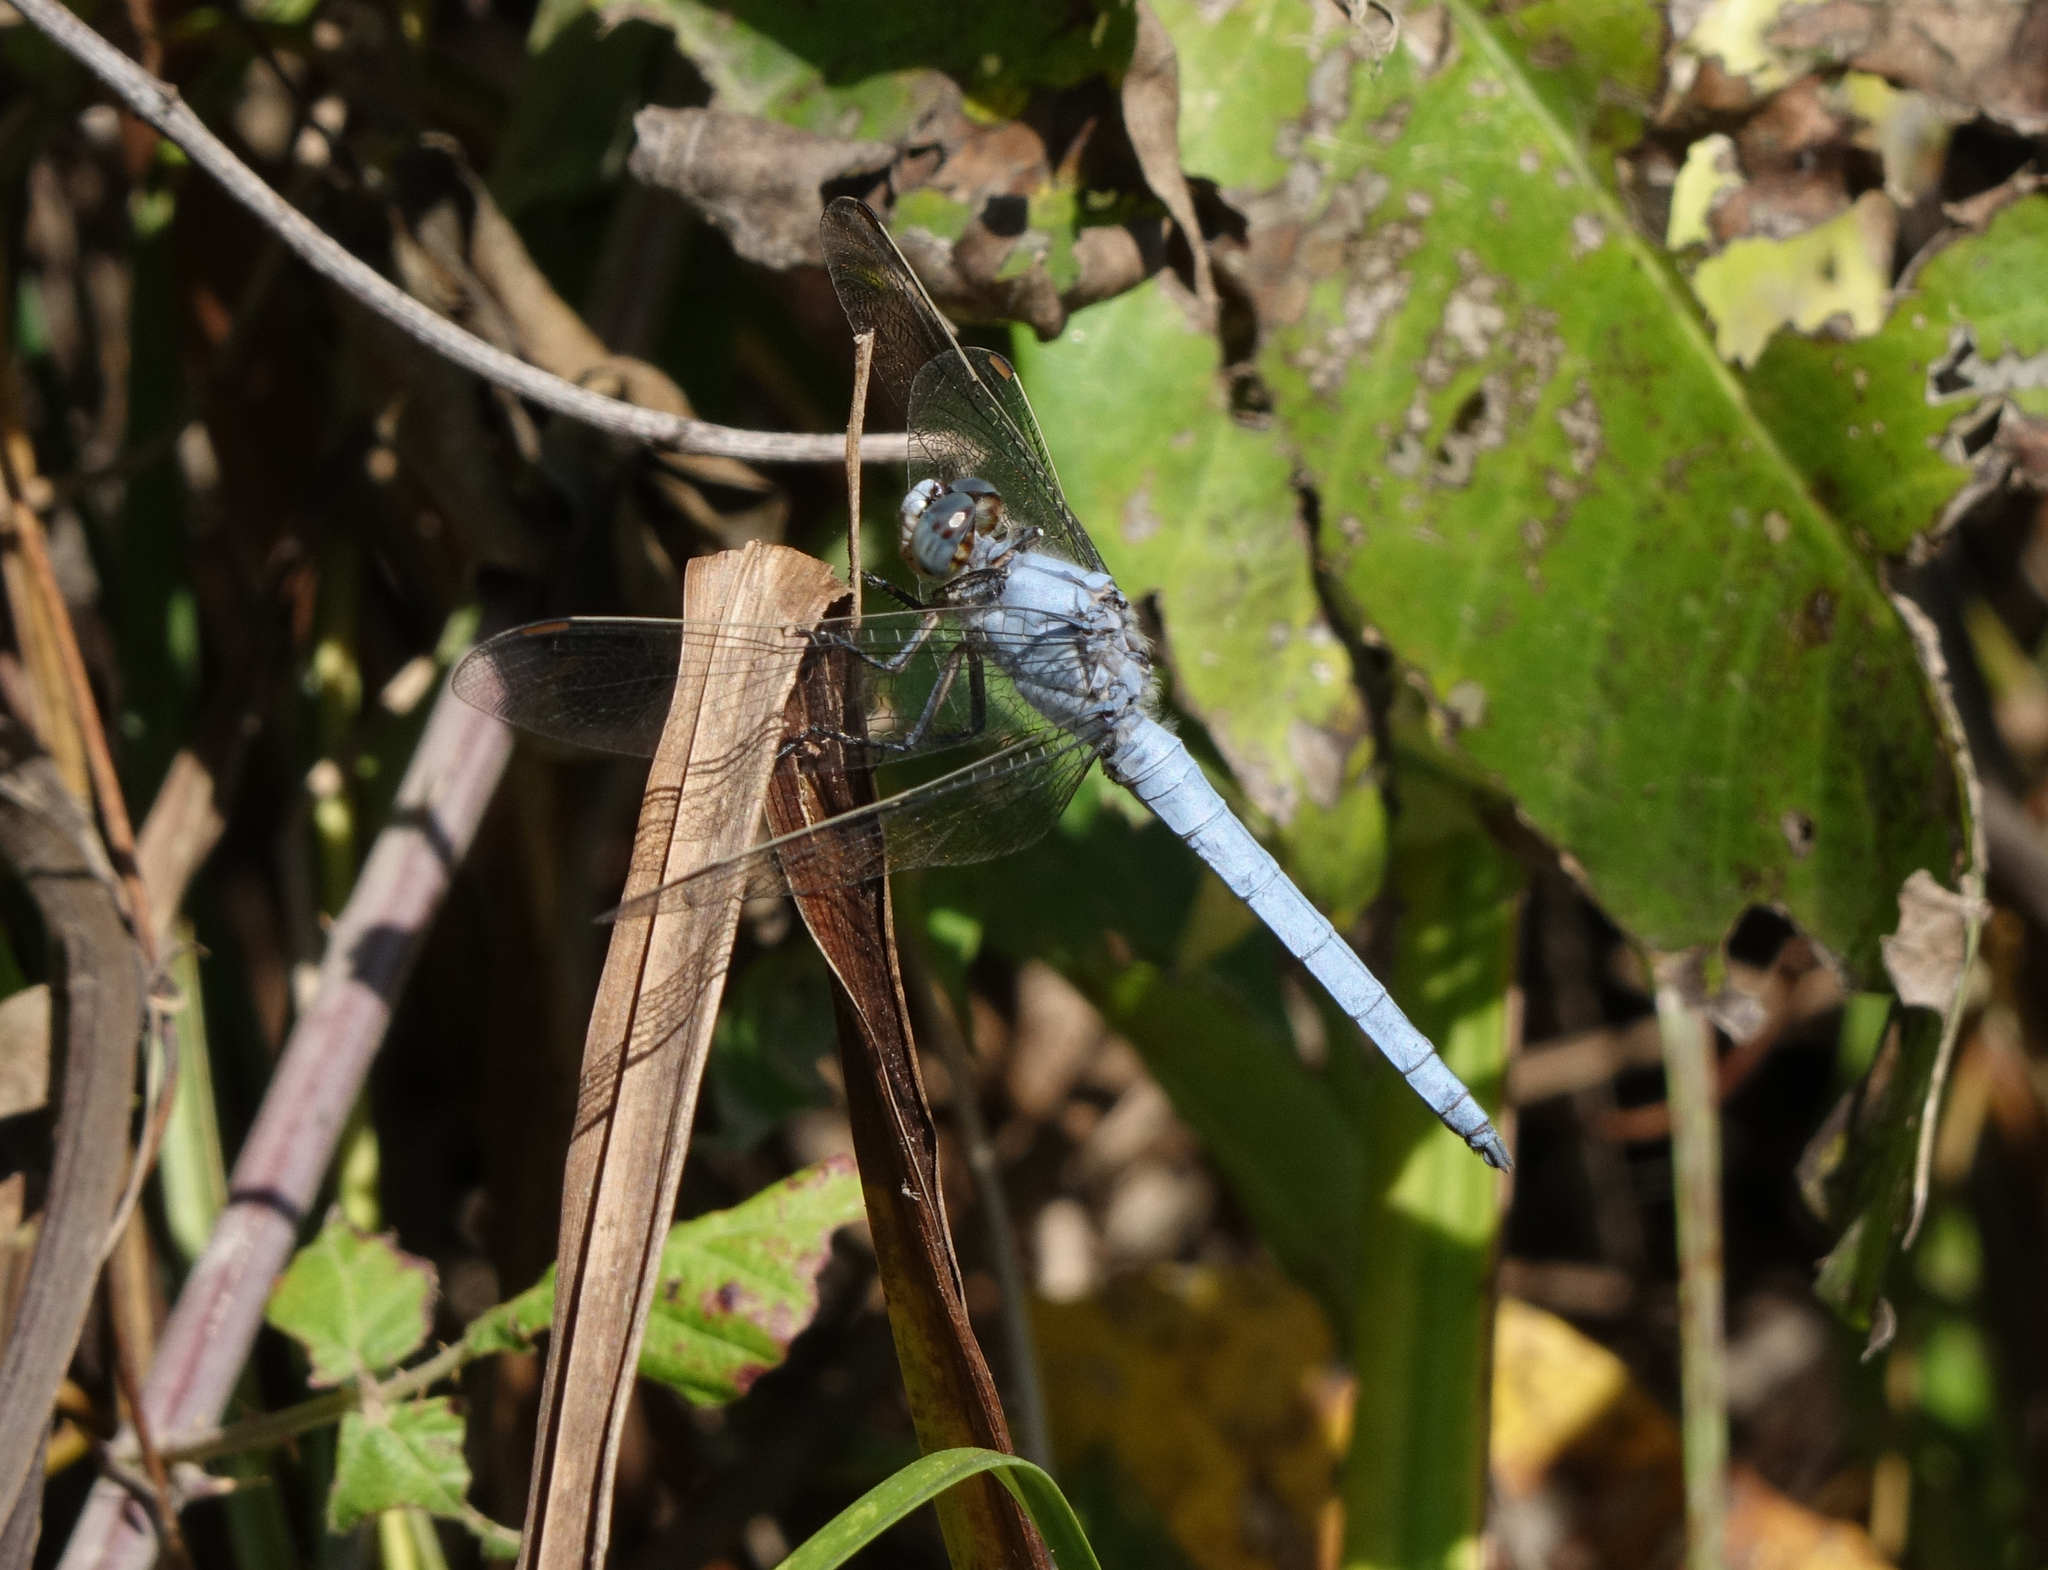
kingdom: Animalia
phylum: Arthropoda
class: Insecta
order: Odonata
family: Libellulidae
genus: Orthetrum
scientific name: Orthetrum brunneum
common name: Southern skimmer
